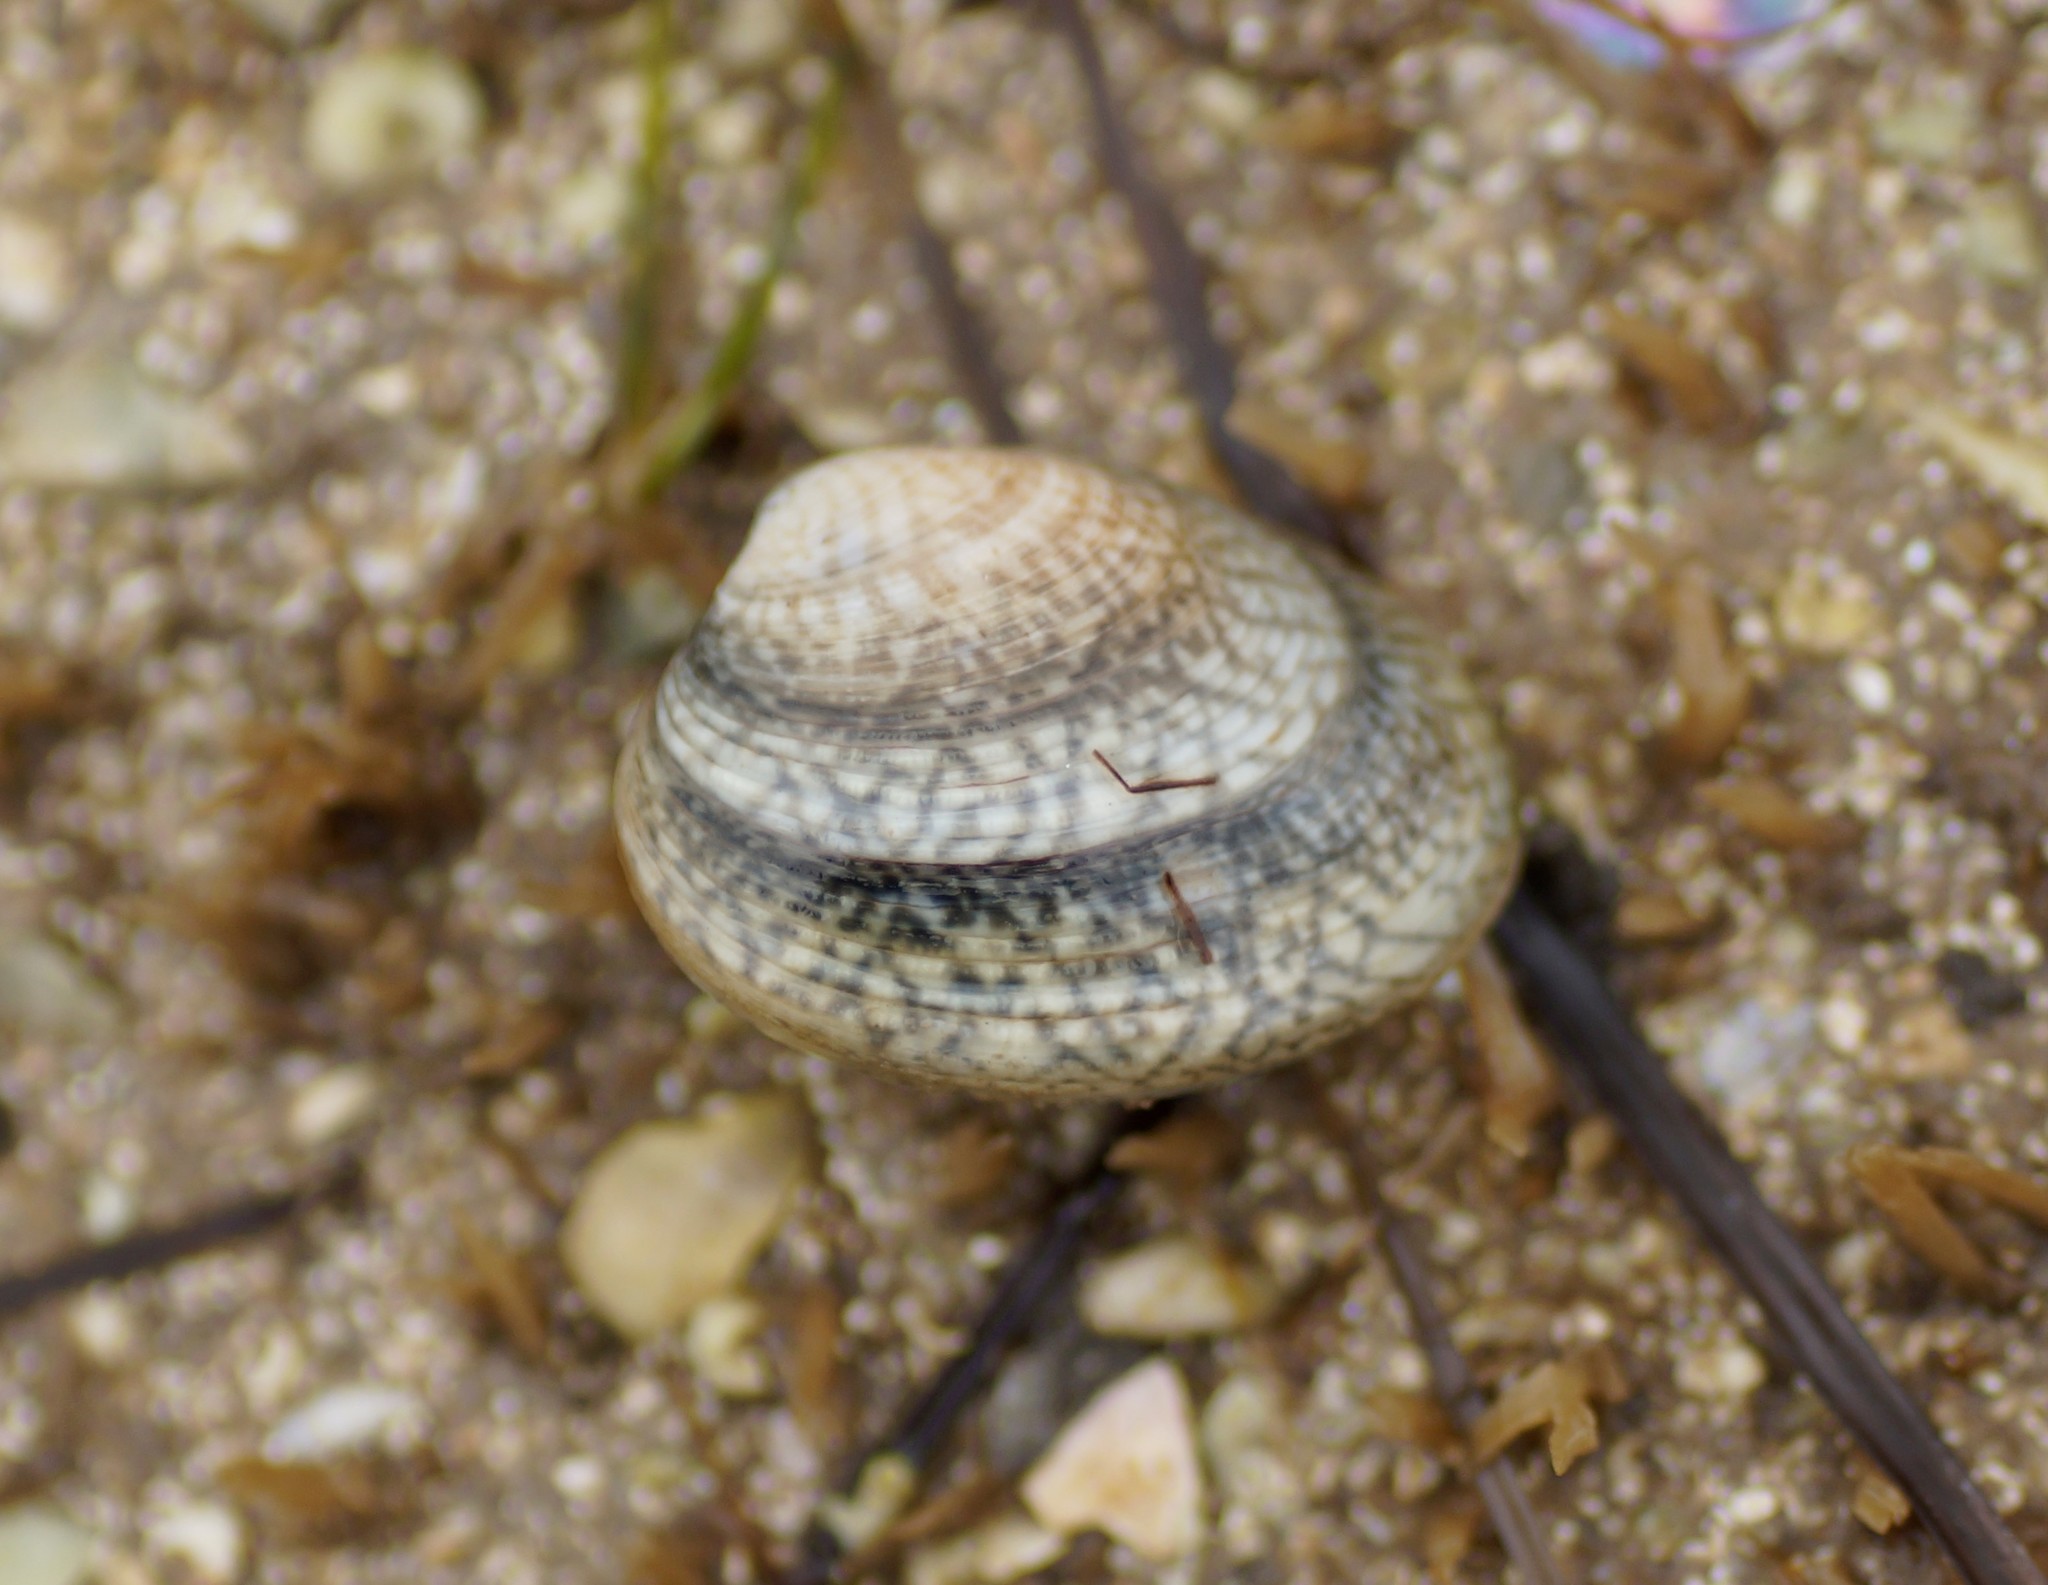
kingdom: Animalia
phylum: Mollusca
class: Bivalvia
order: Venerida
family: Veneridae
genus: Katelysia
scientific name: Katelysia rhytiphora
